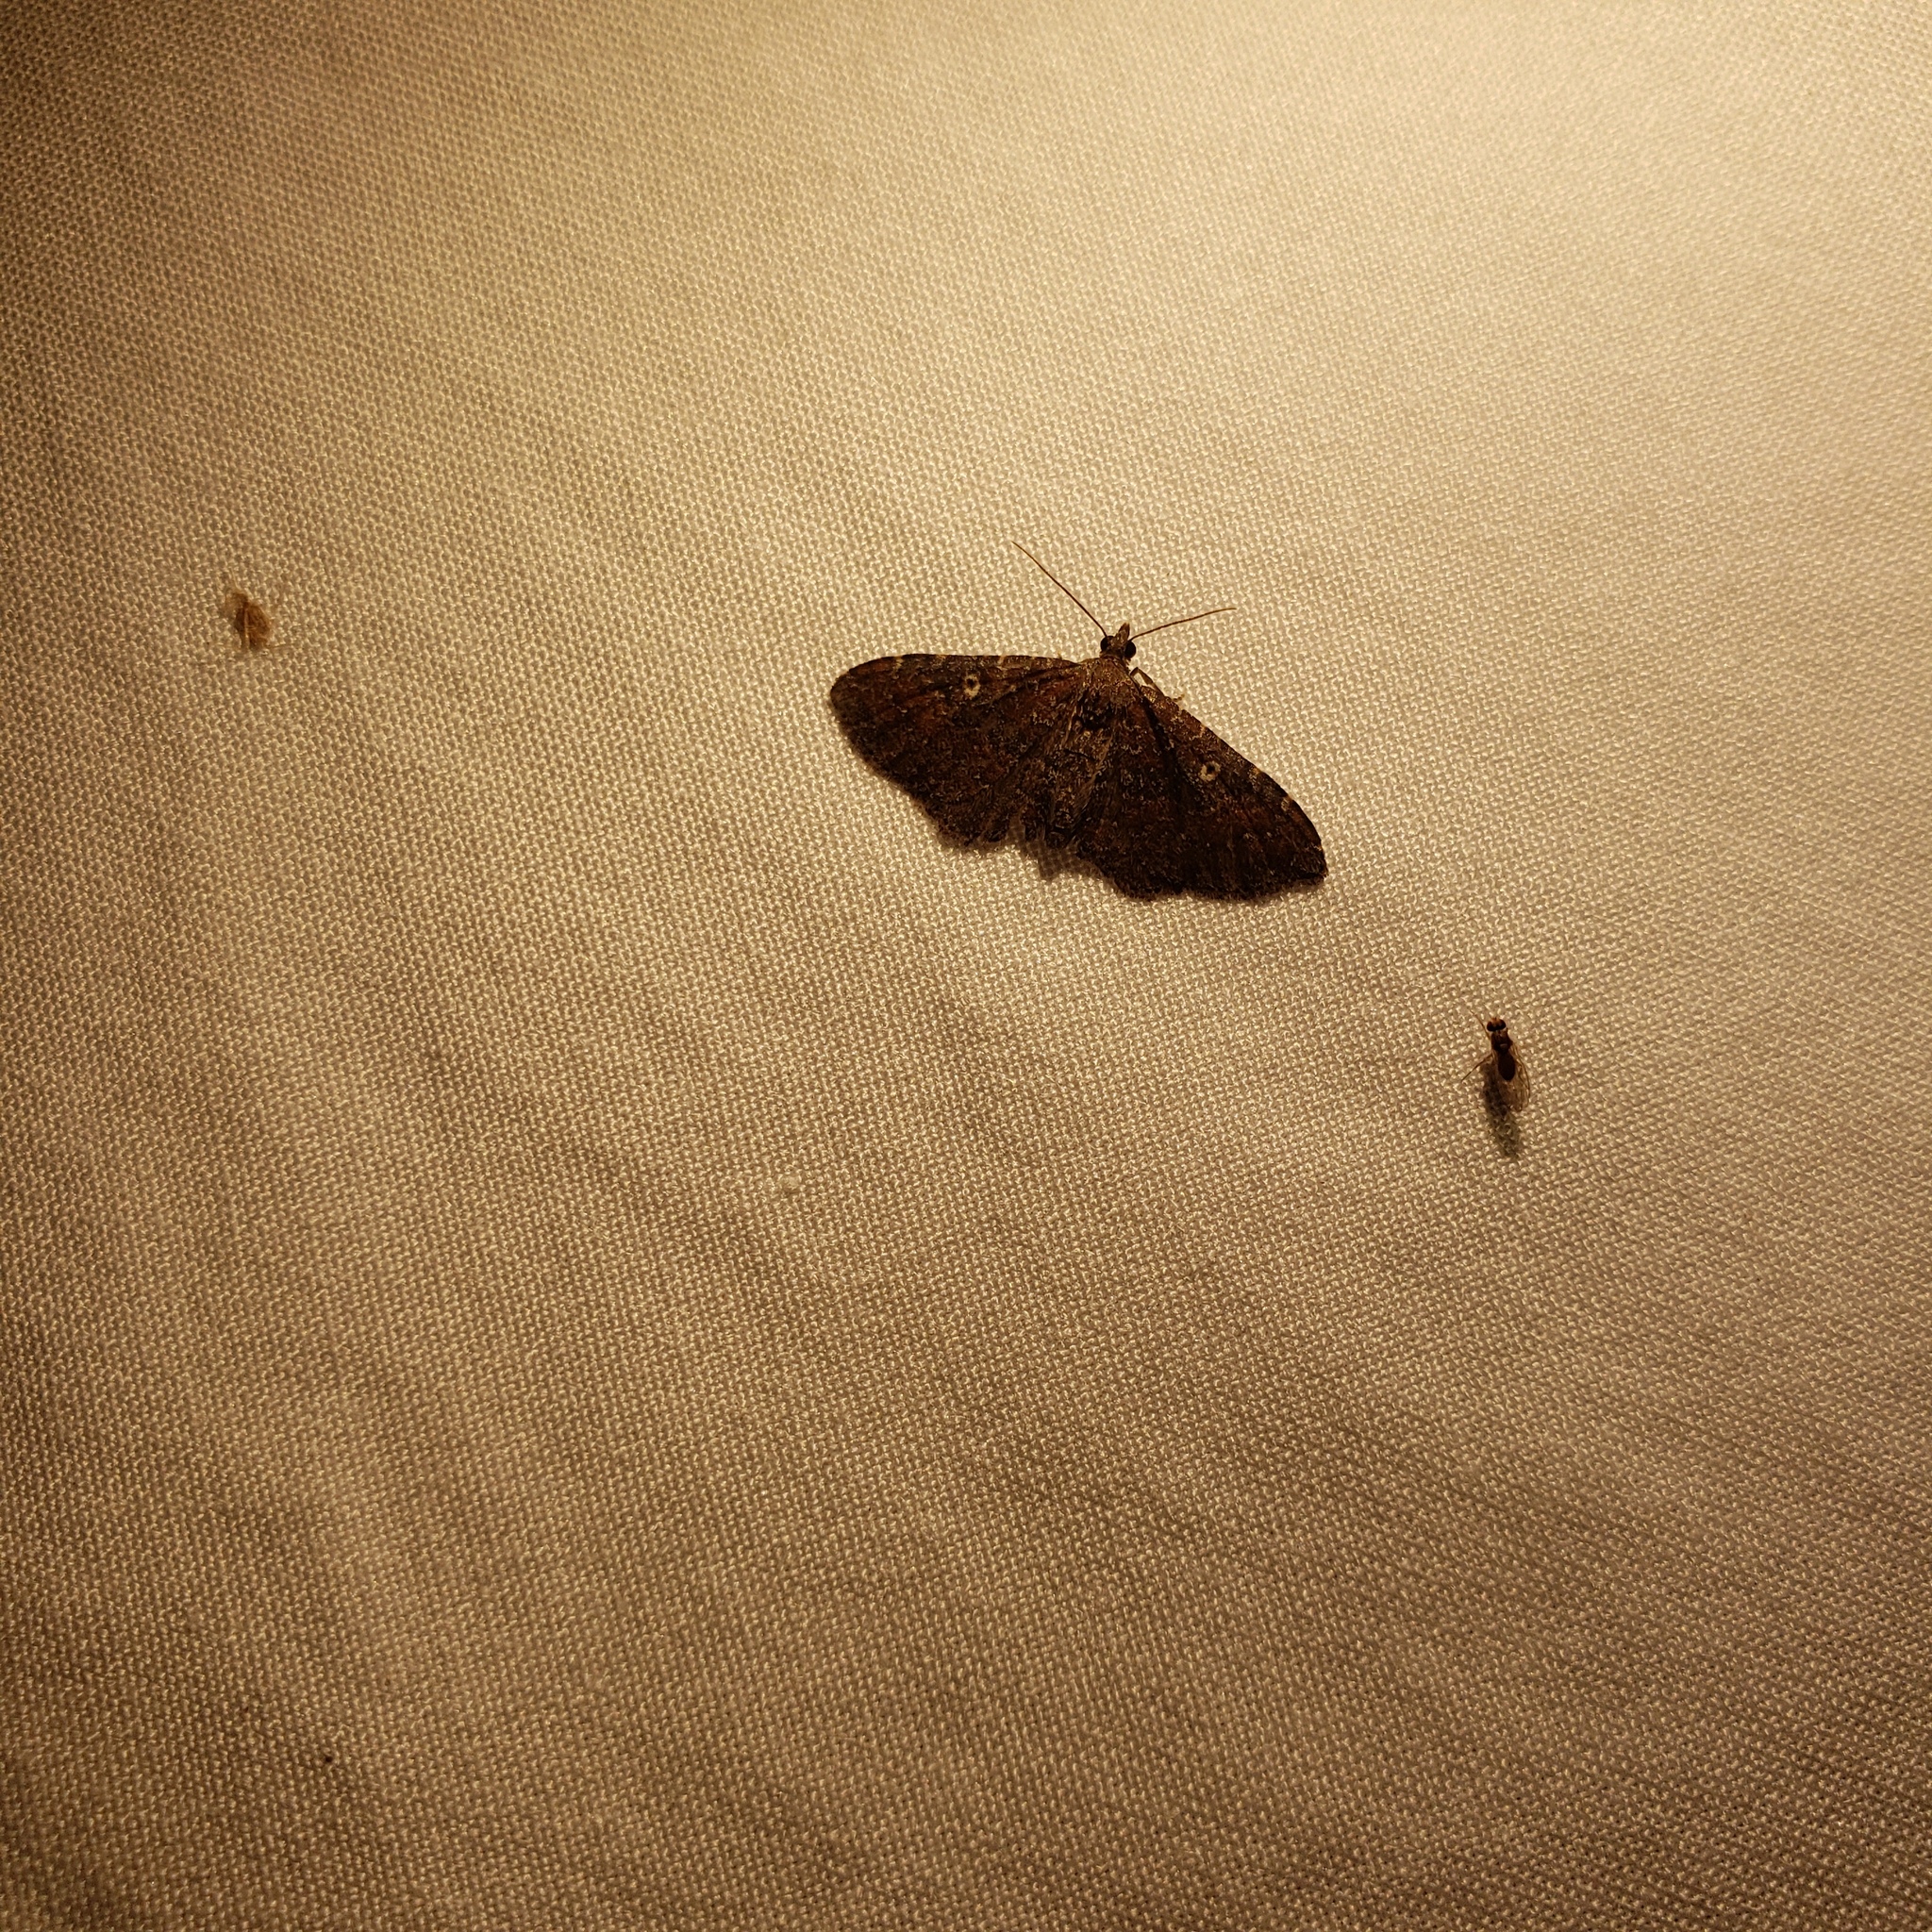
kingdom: Animalia
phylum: Arthropoda
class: Insecta
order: Lepidoptera
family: Geometridae
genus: Orthonama
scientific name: Orthonama obstipata
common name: The gem
